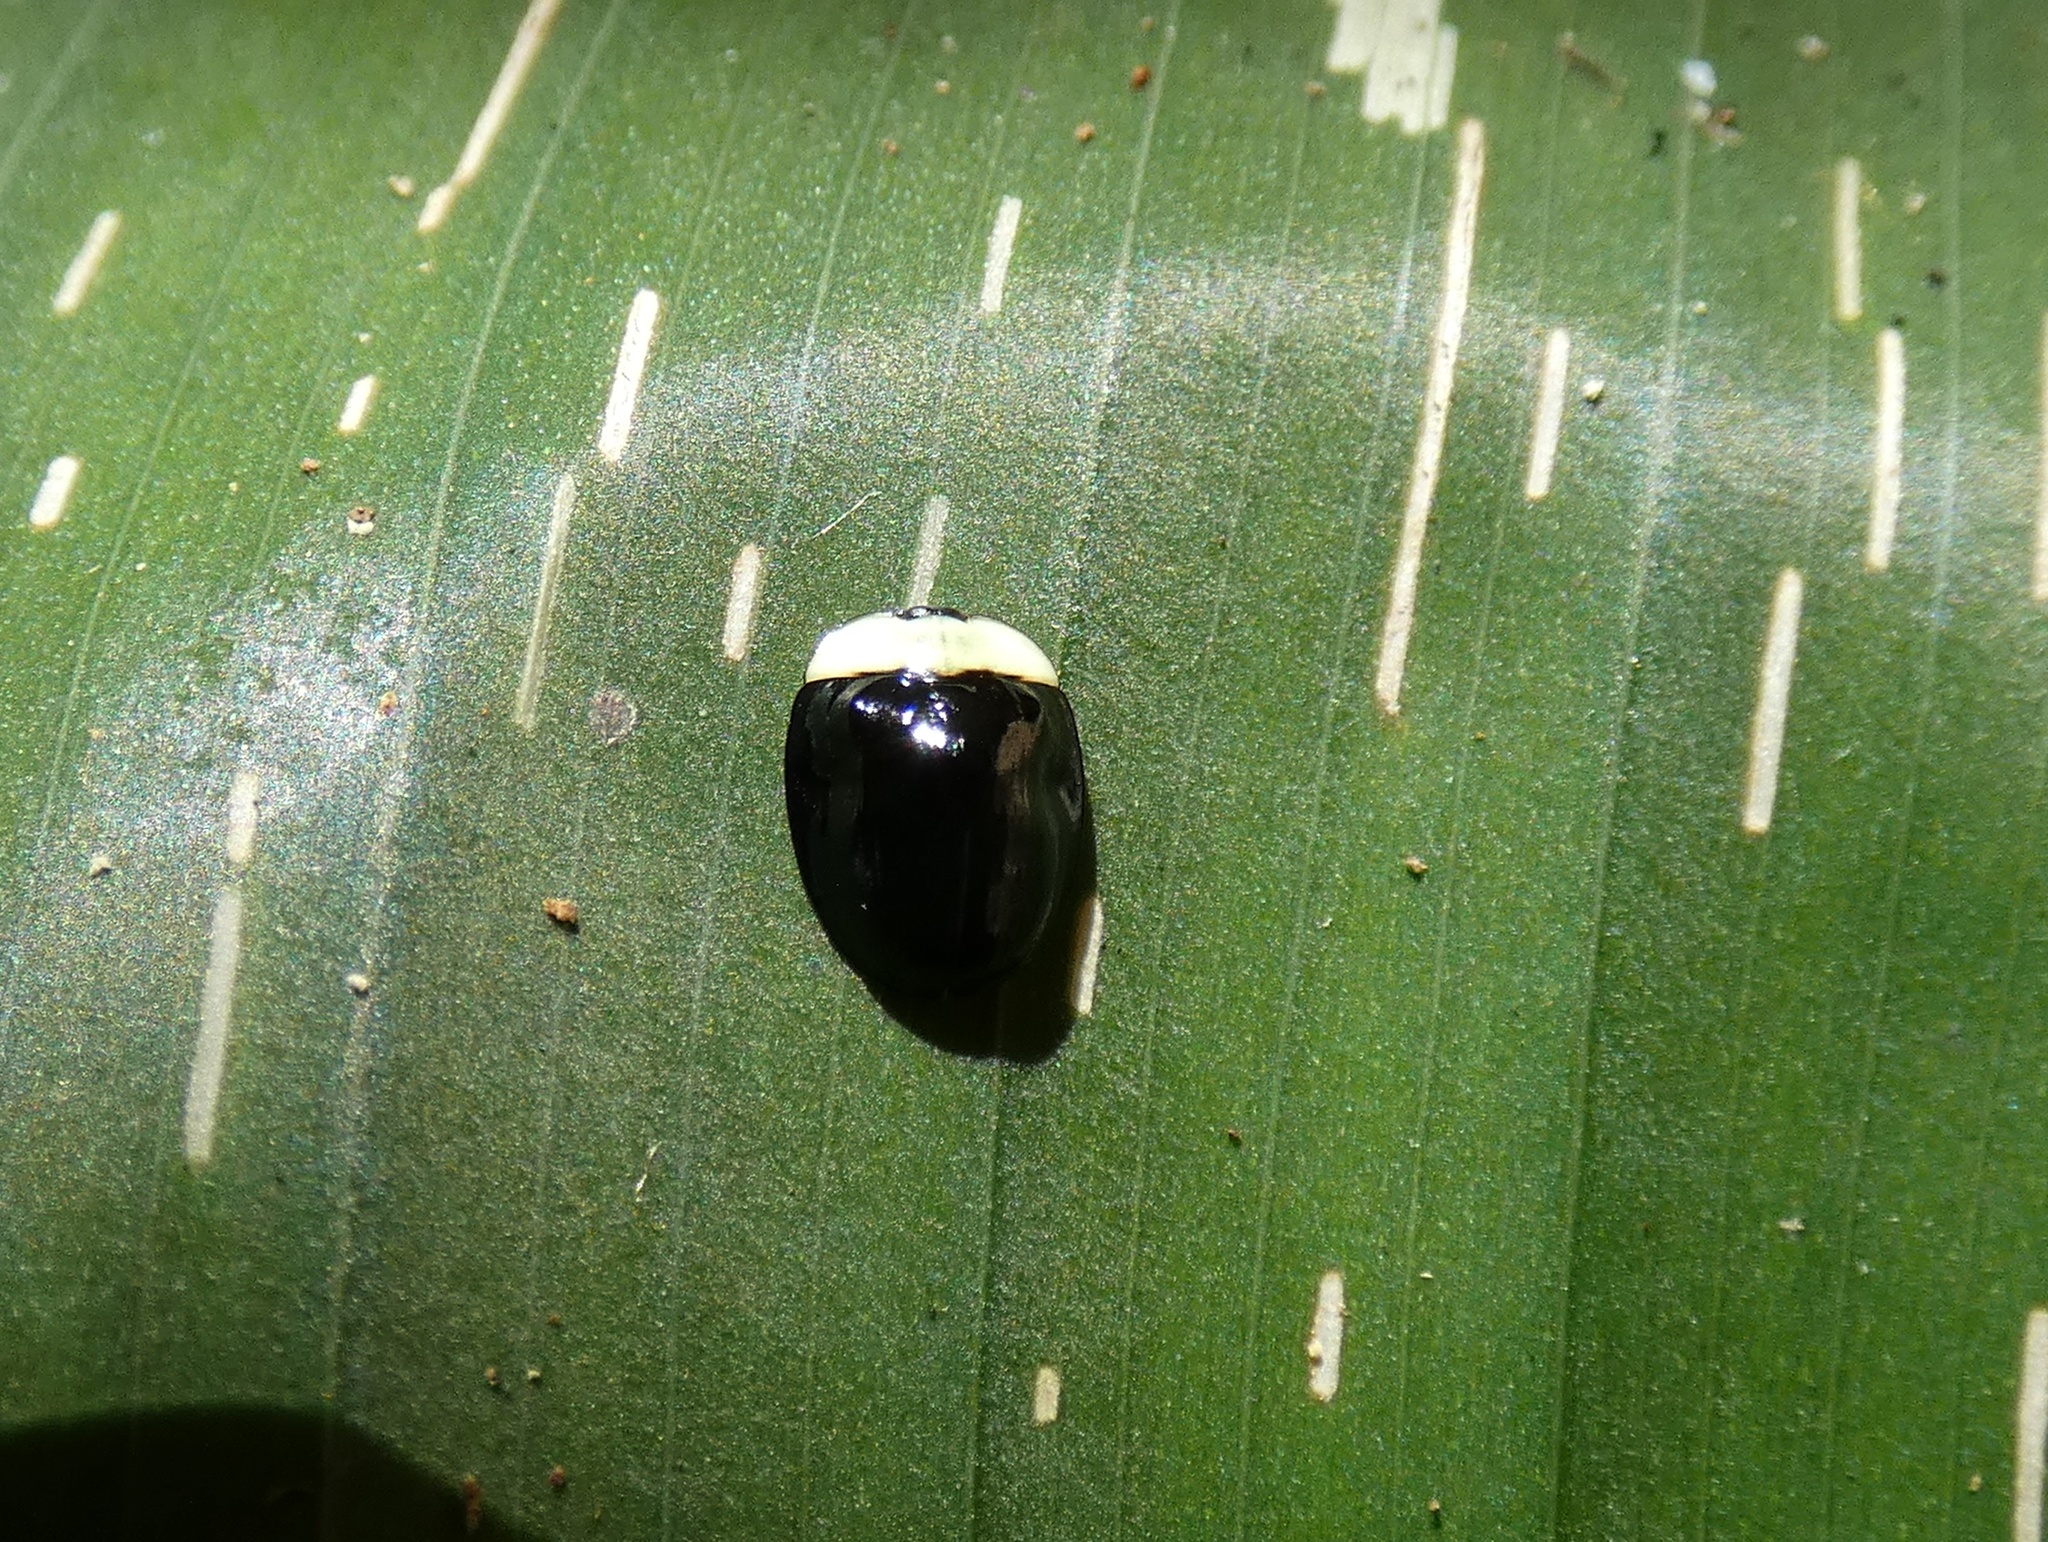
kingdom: Animalia
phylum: Arthropoda
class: Insecta
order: Coleoptera
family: Chrysomelidae
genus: Imatidium
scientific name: Imatidium thoracicum
